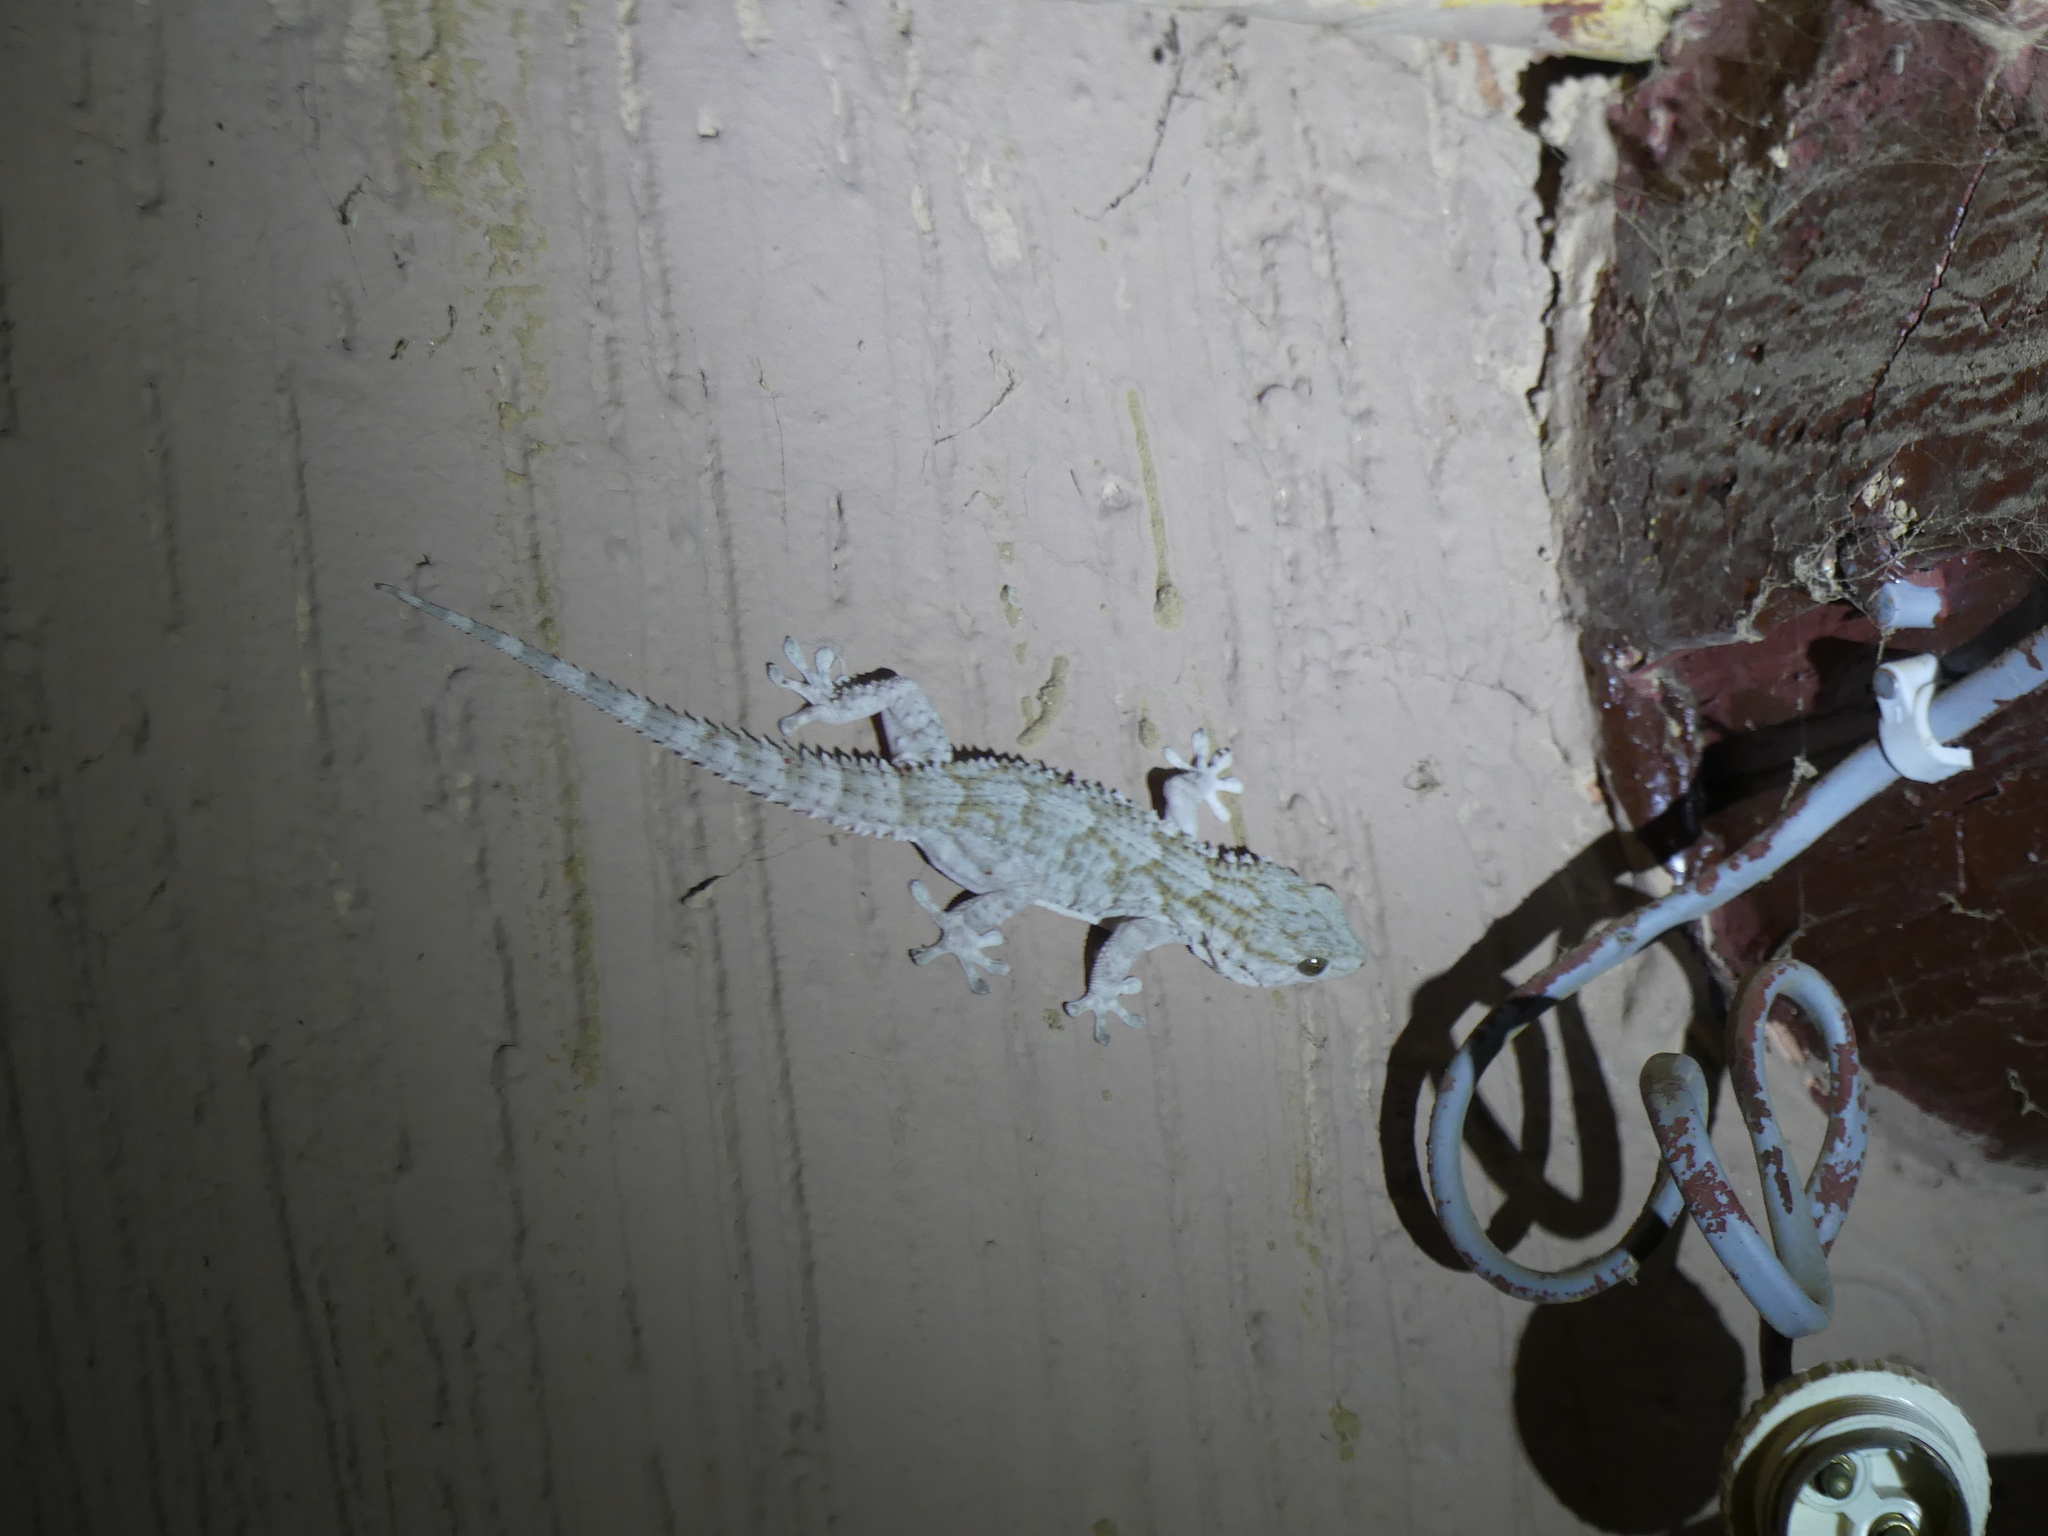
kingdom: Animalia
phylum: Chordata
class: Squamata
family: Phyllodactylidae
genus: Tarentola
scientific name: Tarentola mauritanica
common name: Moorish gecko
